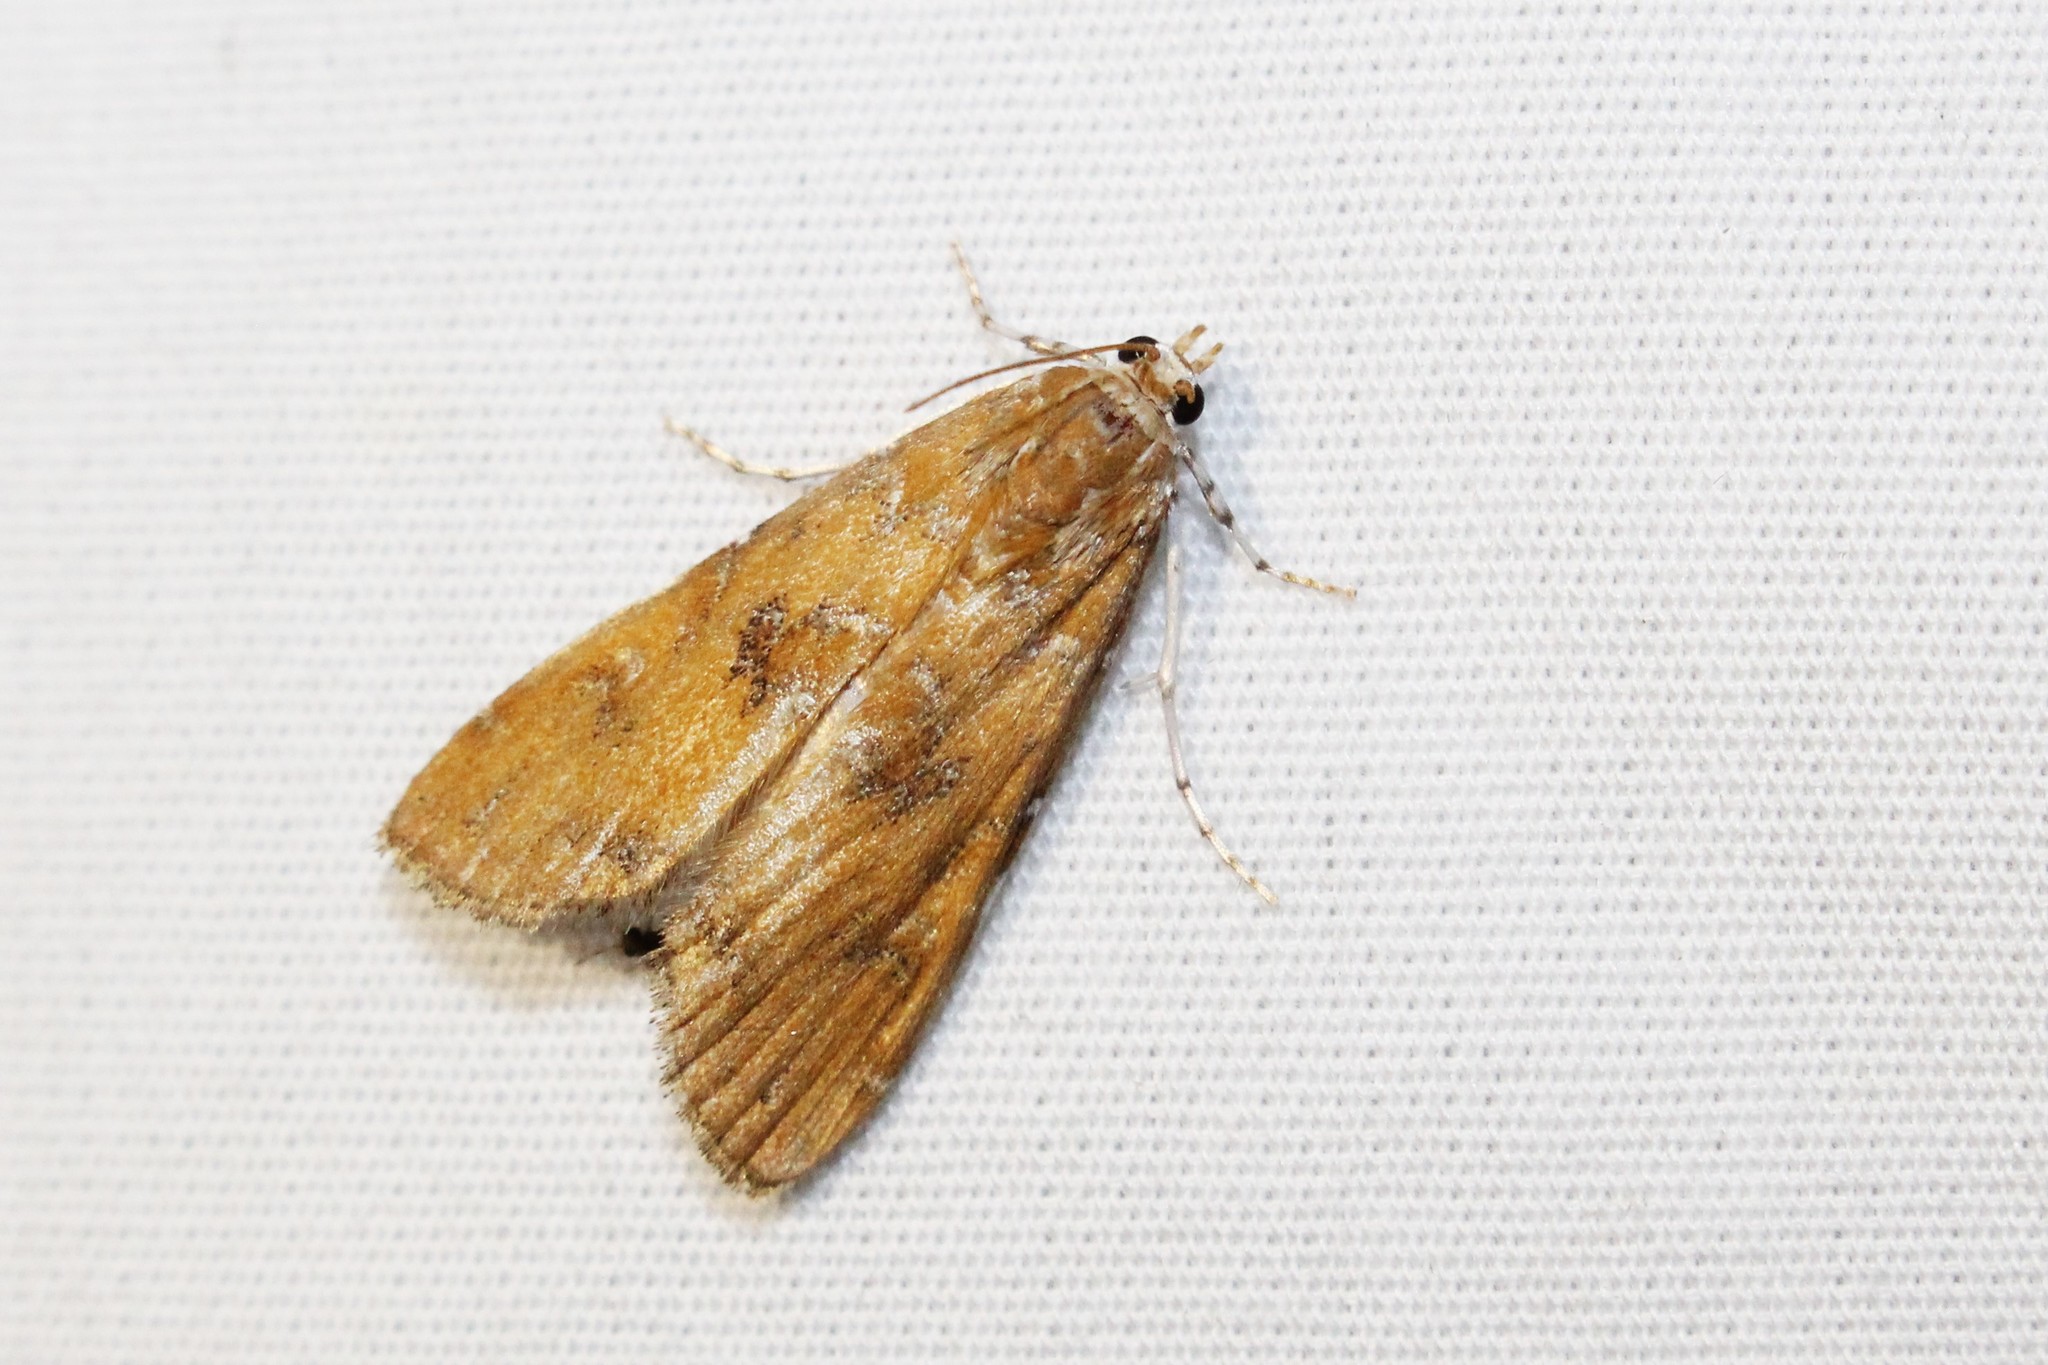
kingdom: Animalia
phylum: Arthropoda
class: Insecta
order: Lepidoptera
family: Crambidae
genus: Elophila
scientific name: Elophila gyralis
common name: Waterlily borer moth
